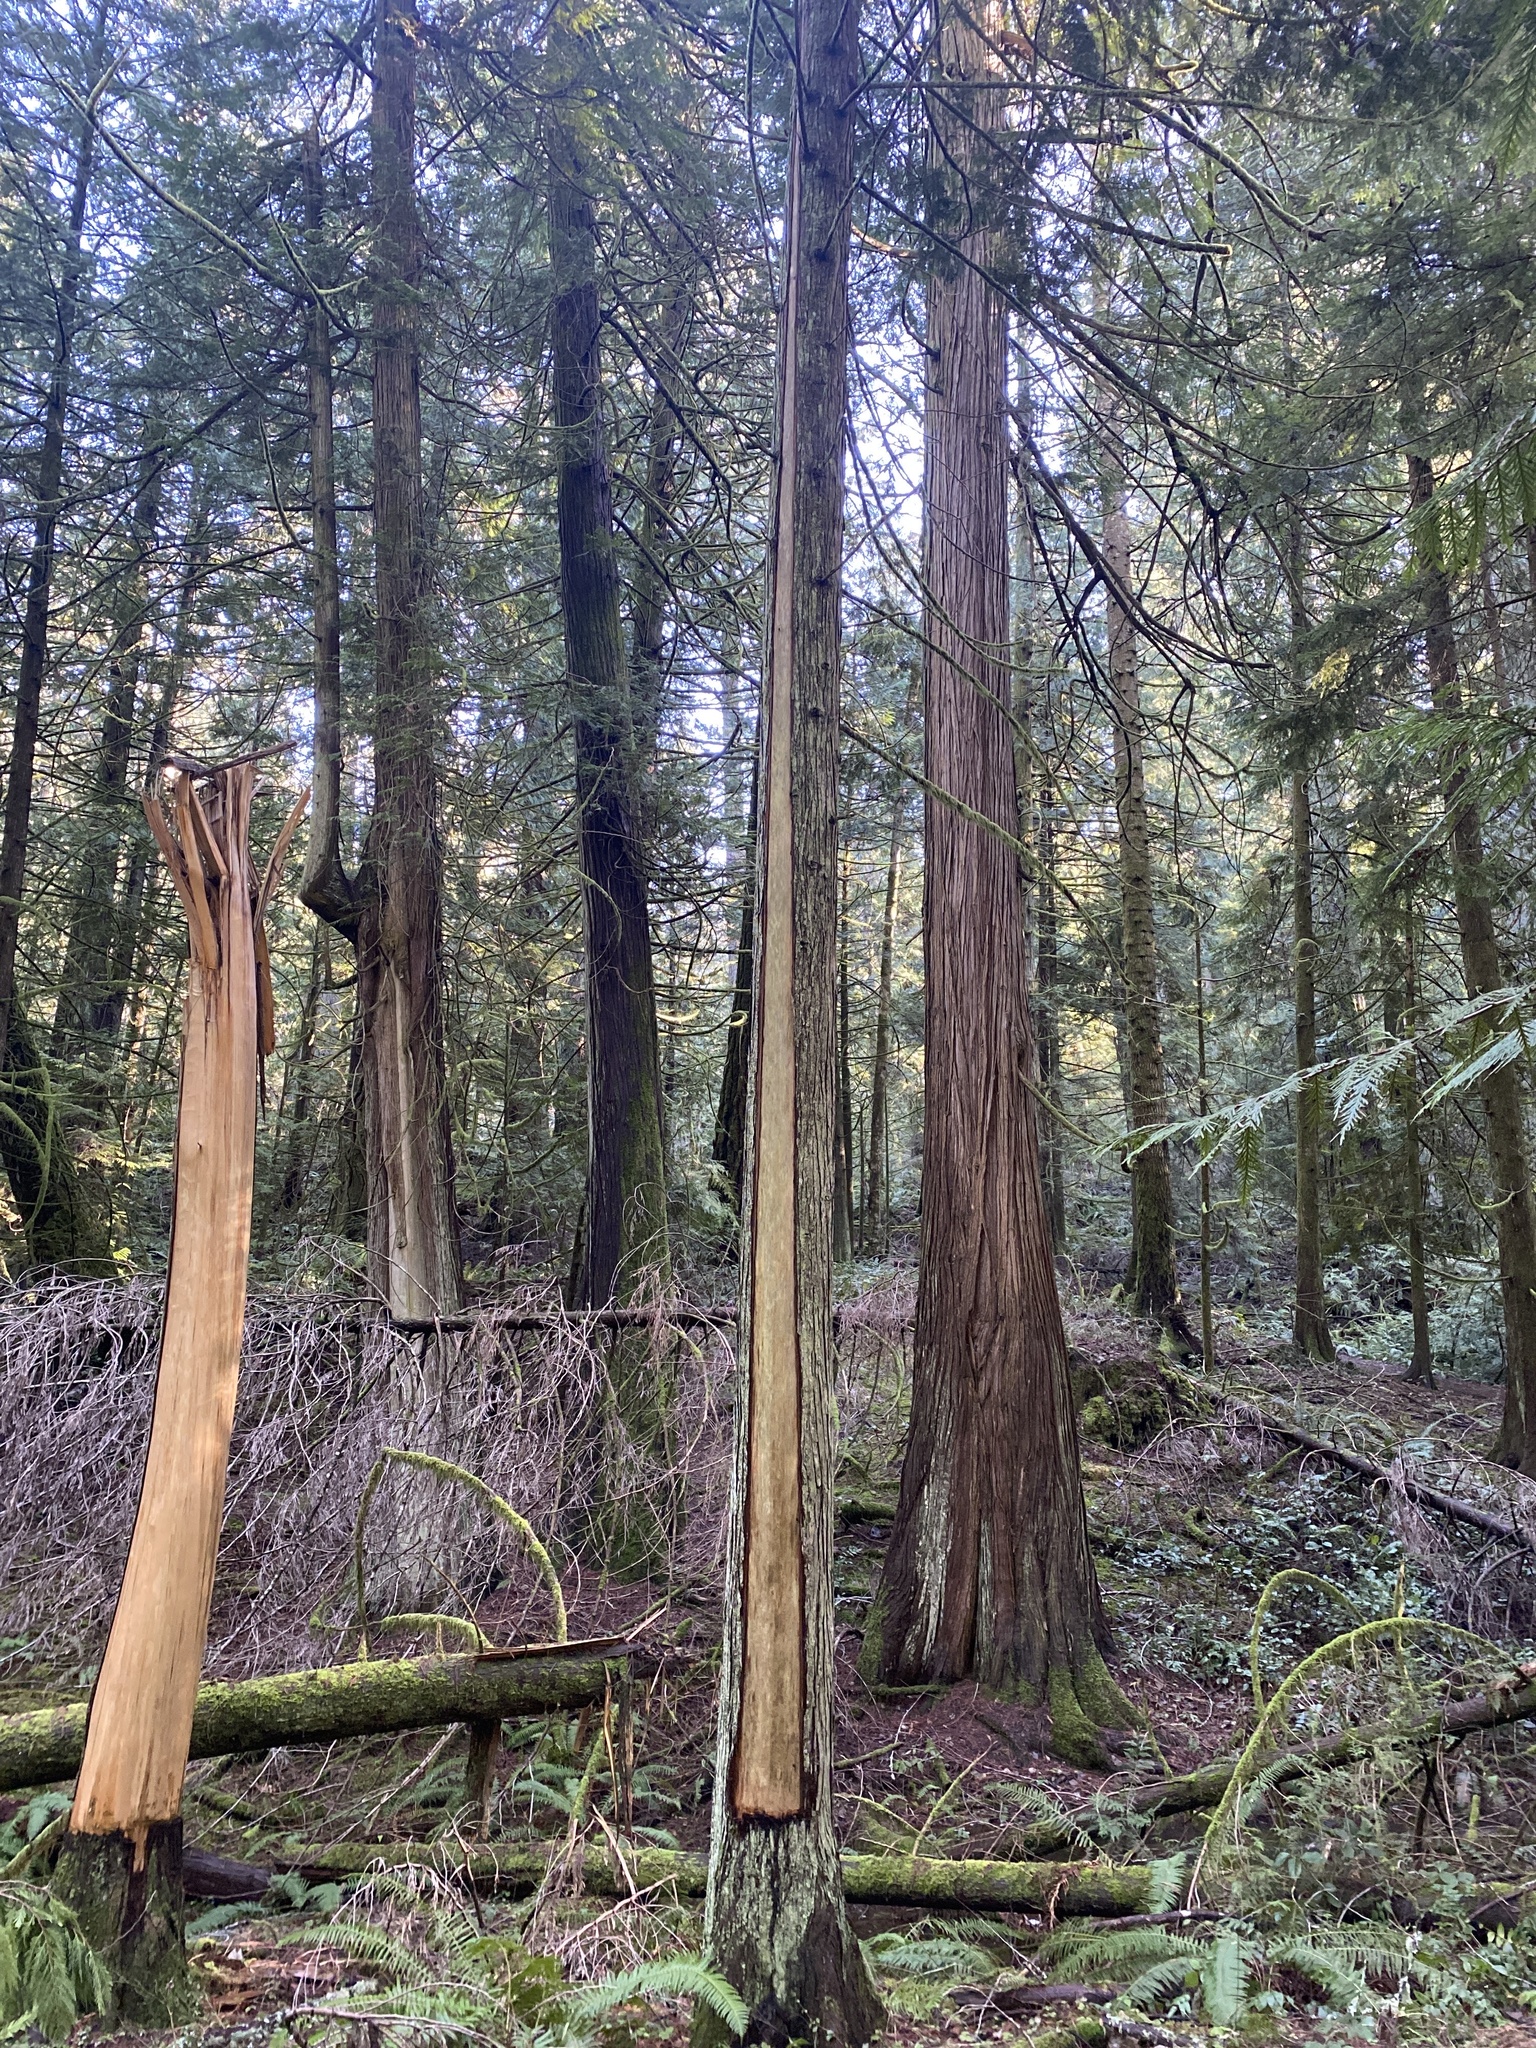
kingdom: Plantae
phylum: Tracheophyta
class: Pinopsida
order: Pinales
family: Cupressaceae
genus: Thuja
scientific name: Thuja plicata
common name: Western red-cedar
